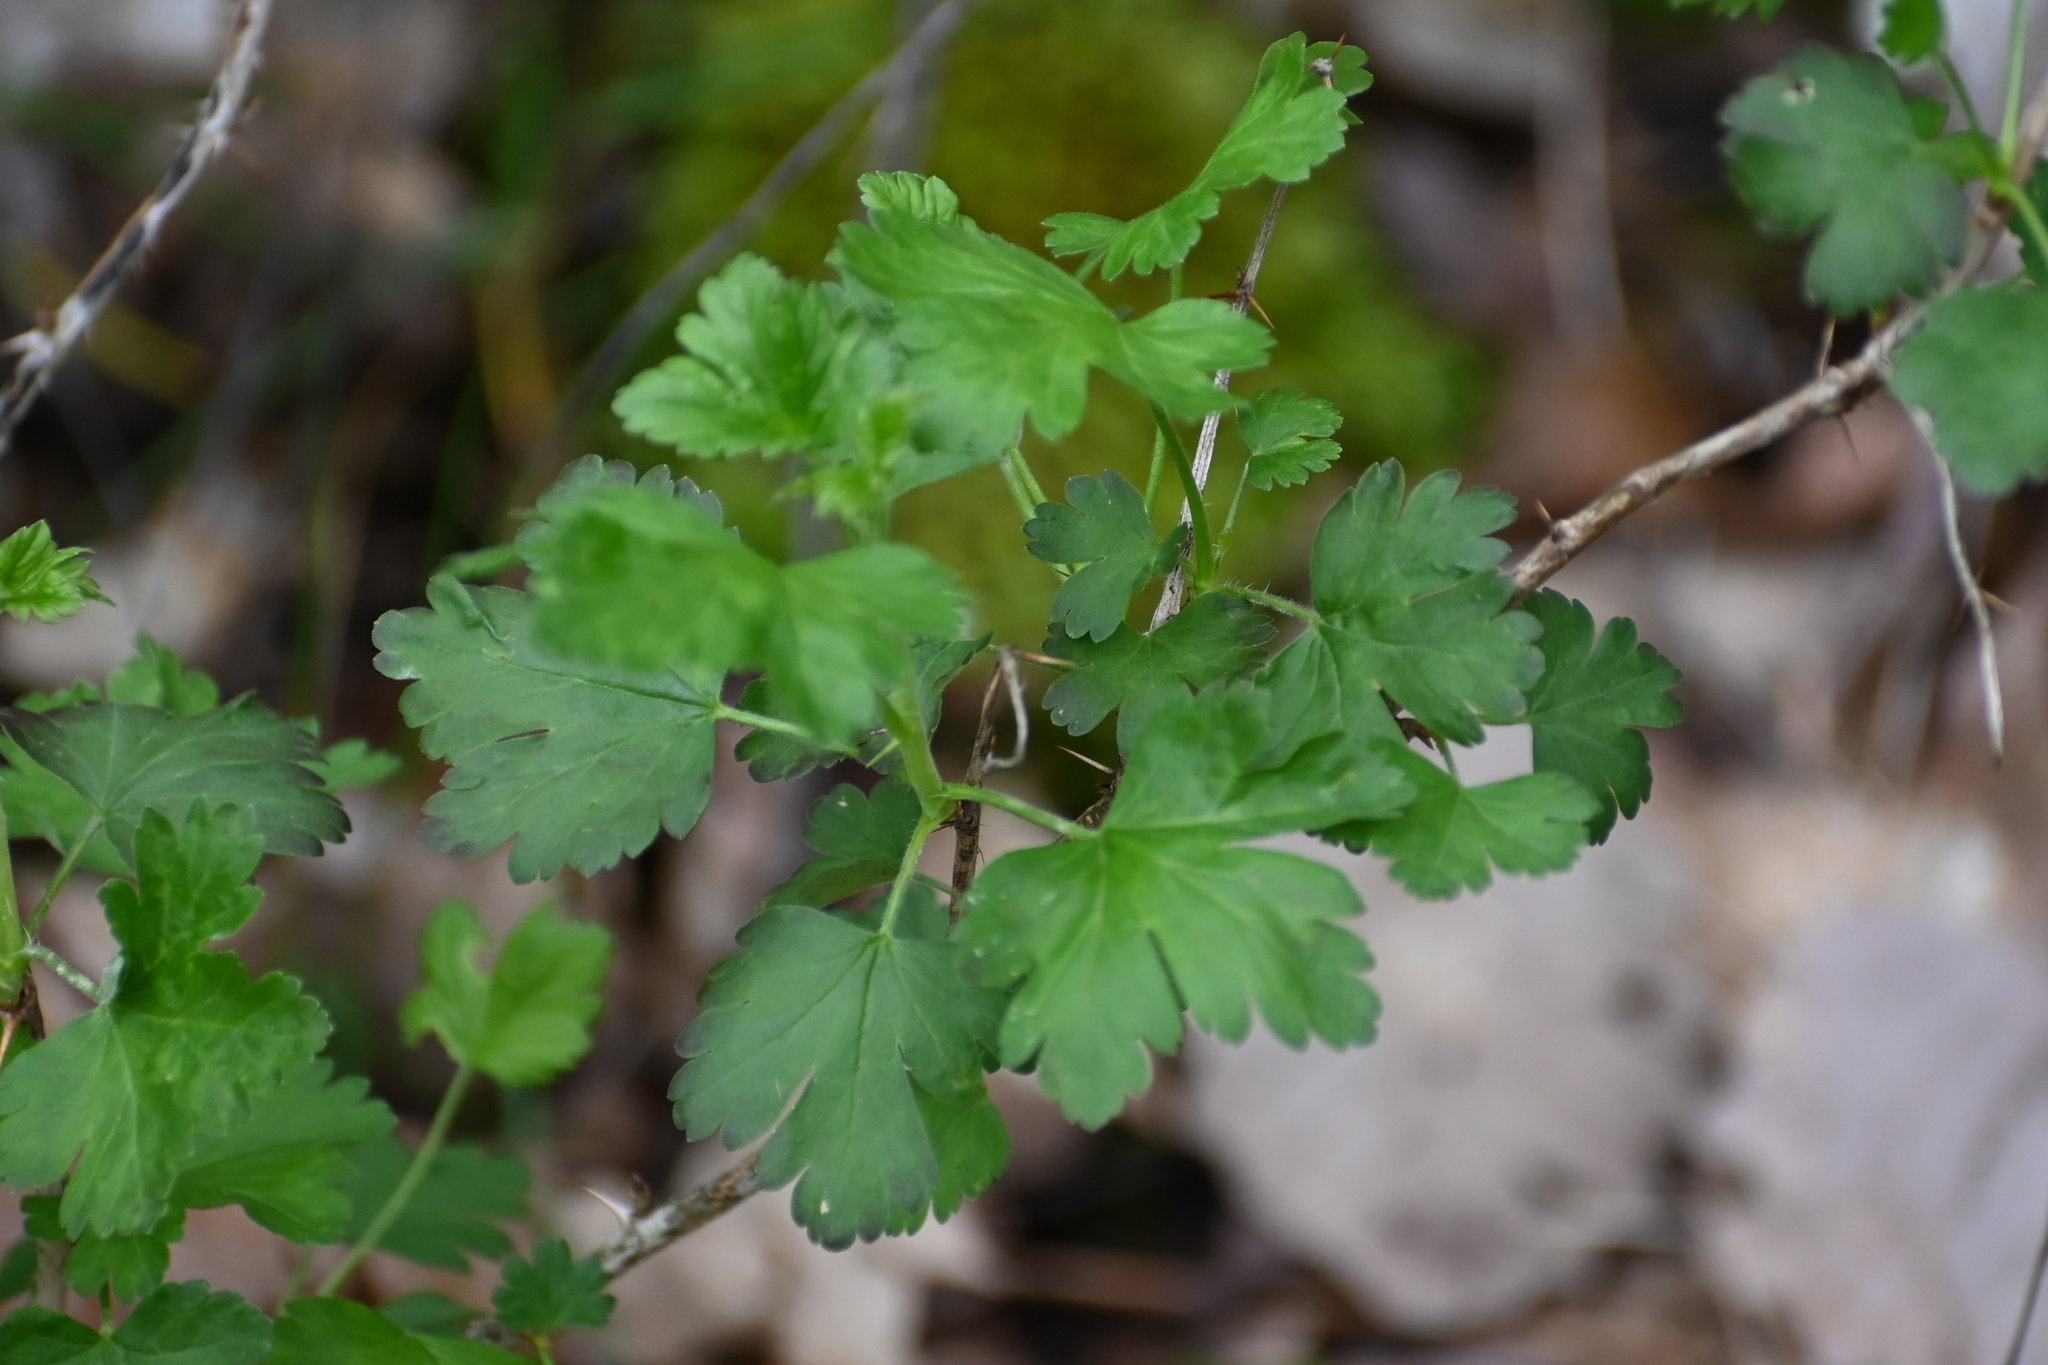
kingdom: Plantae
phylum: Tracheophyta
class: Magnoliopsida
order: Saxifragales
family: Grossulariaceae
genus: Ribes
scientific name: Ribes uva-crispa
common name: Gooseberry
